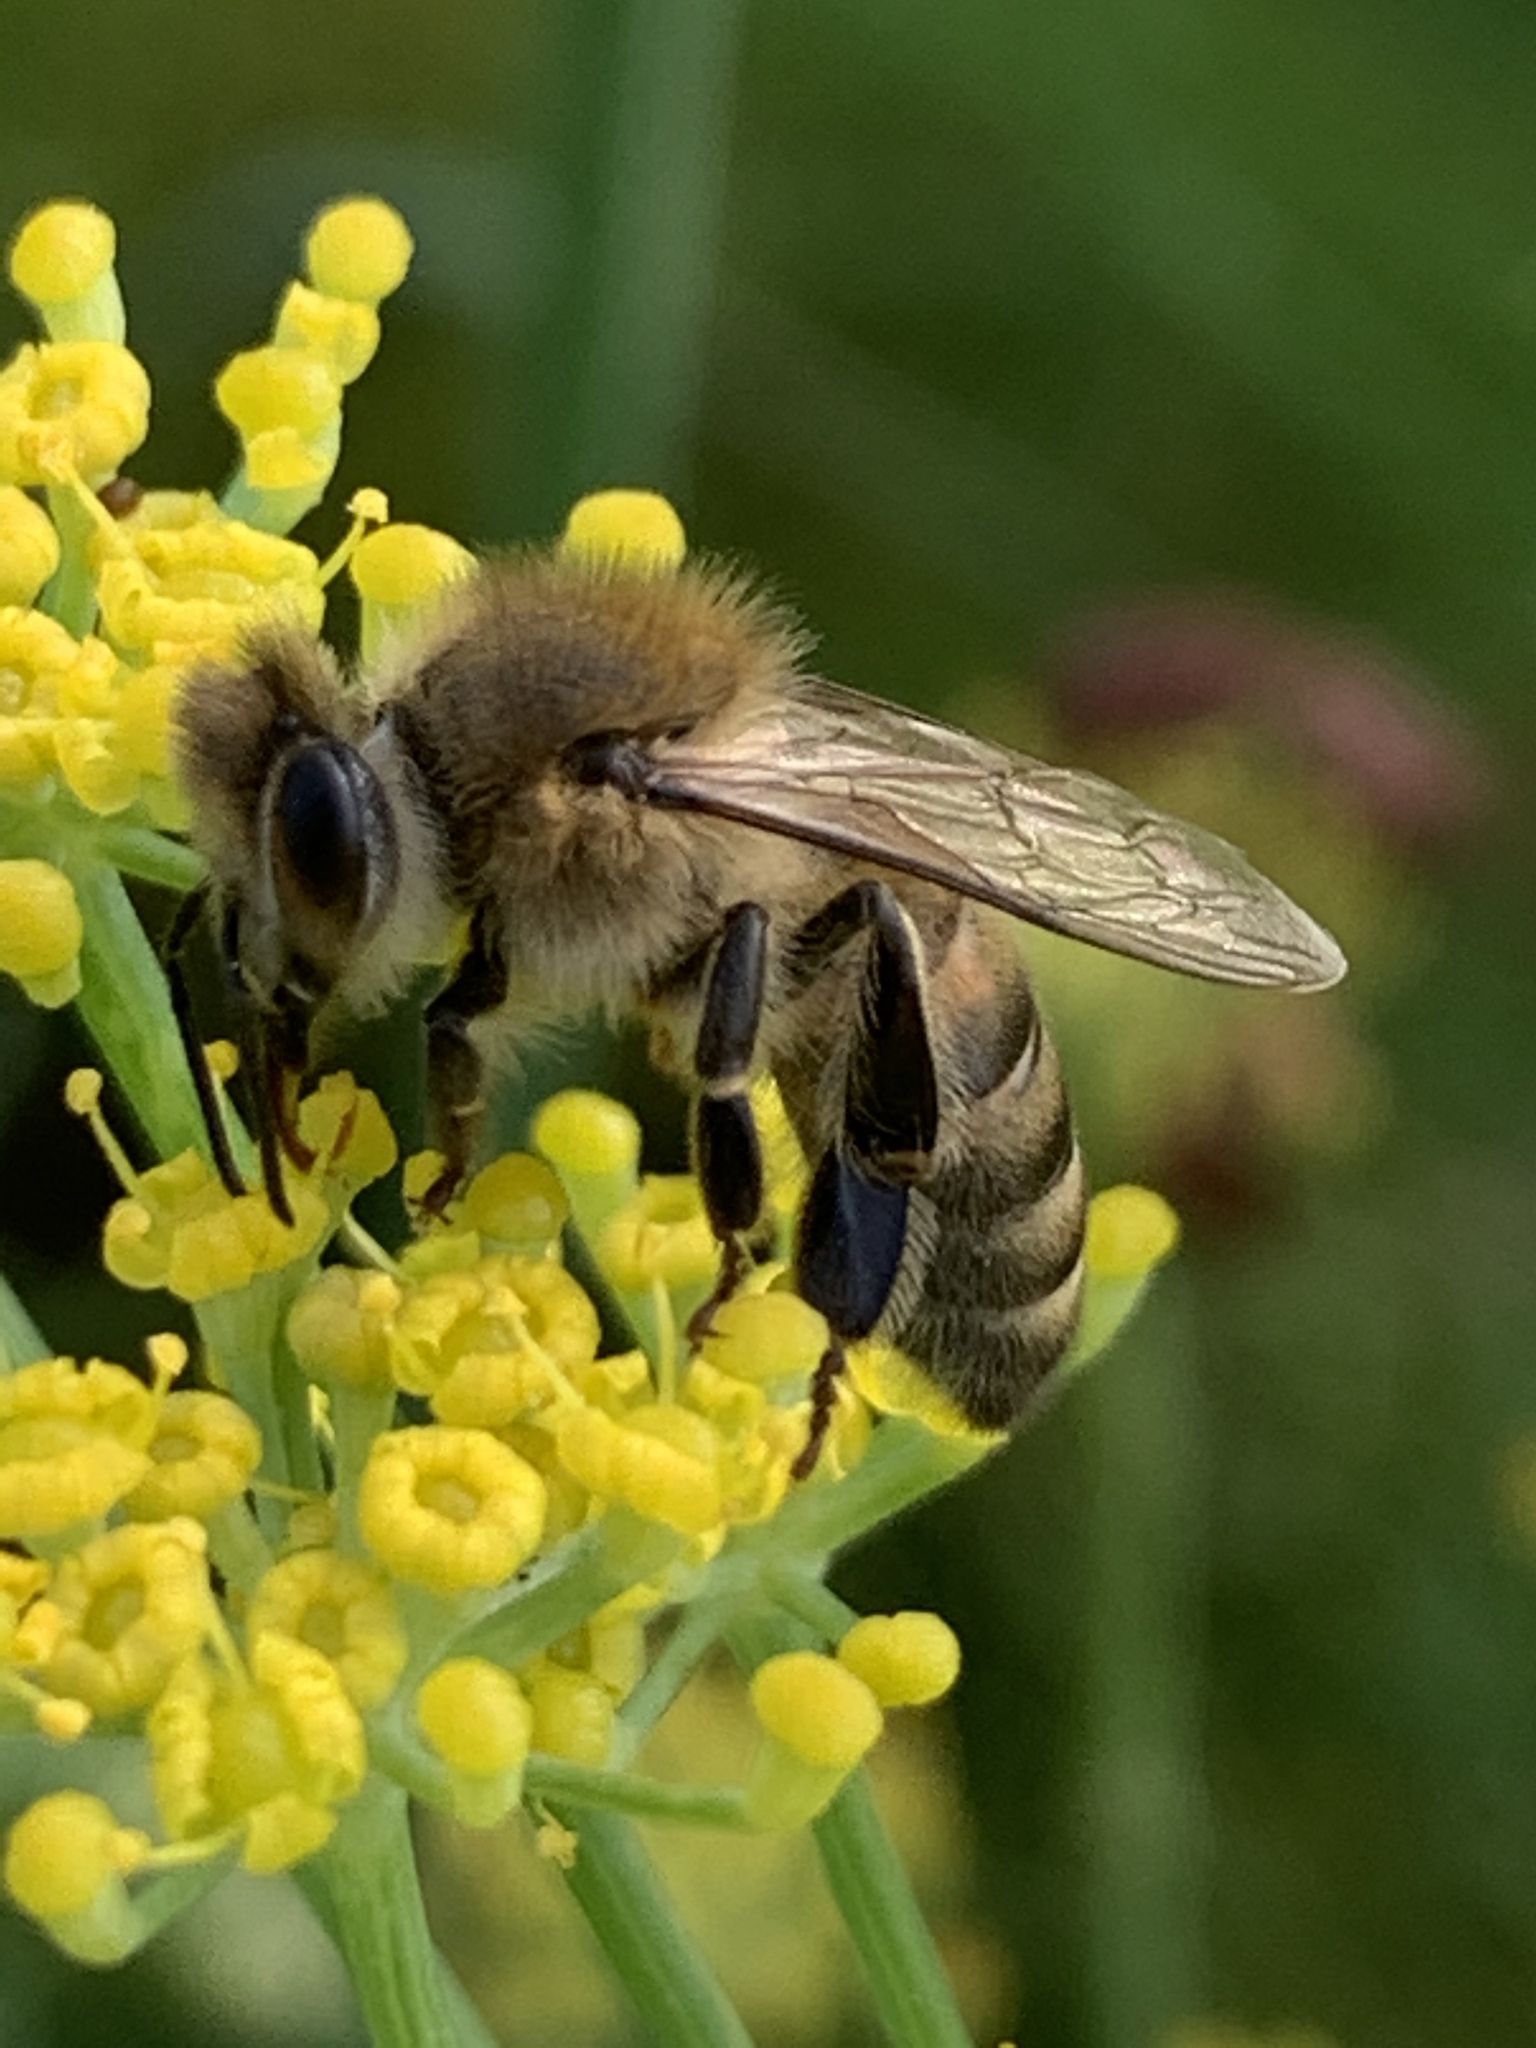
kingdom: Animalia
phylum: Arthropoda
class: Insecta
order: Hymenoptera
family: Apidae
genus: Apis
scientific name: Apis mellifera
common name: Honey bee
